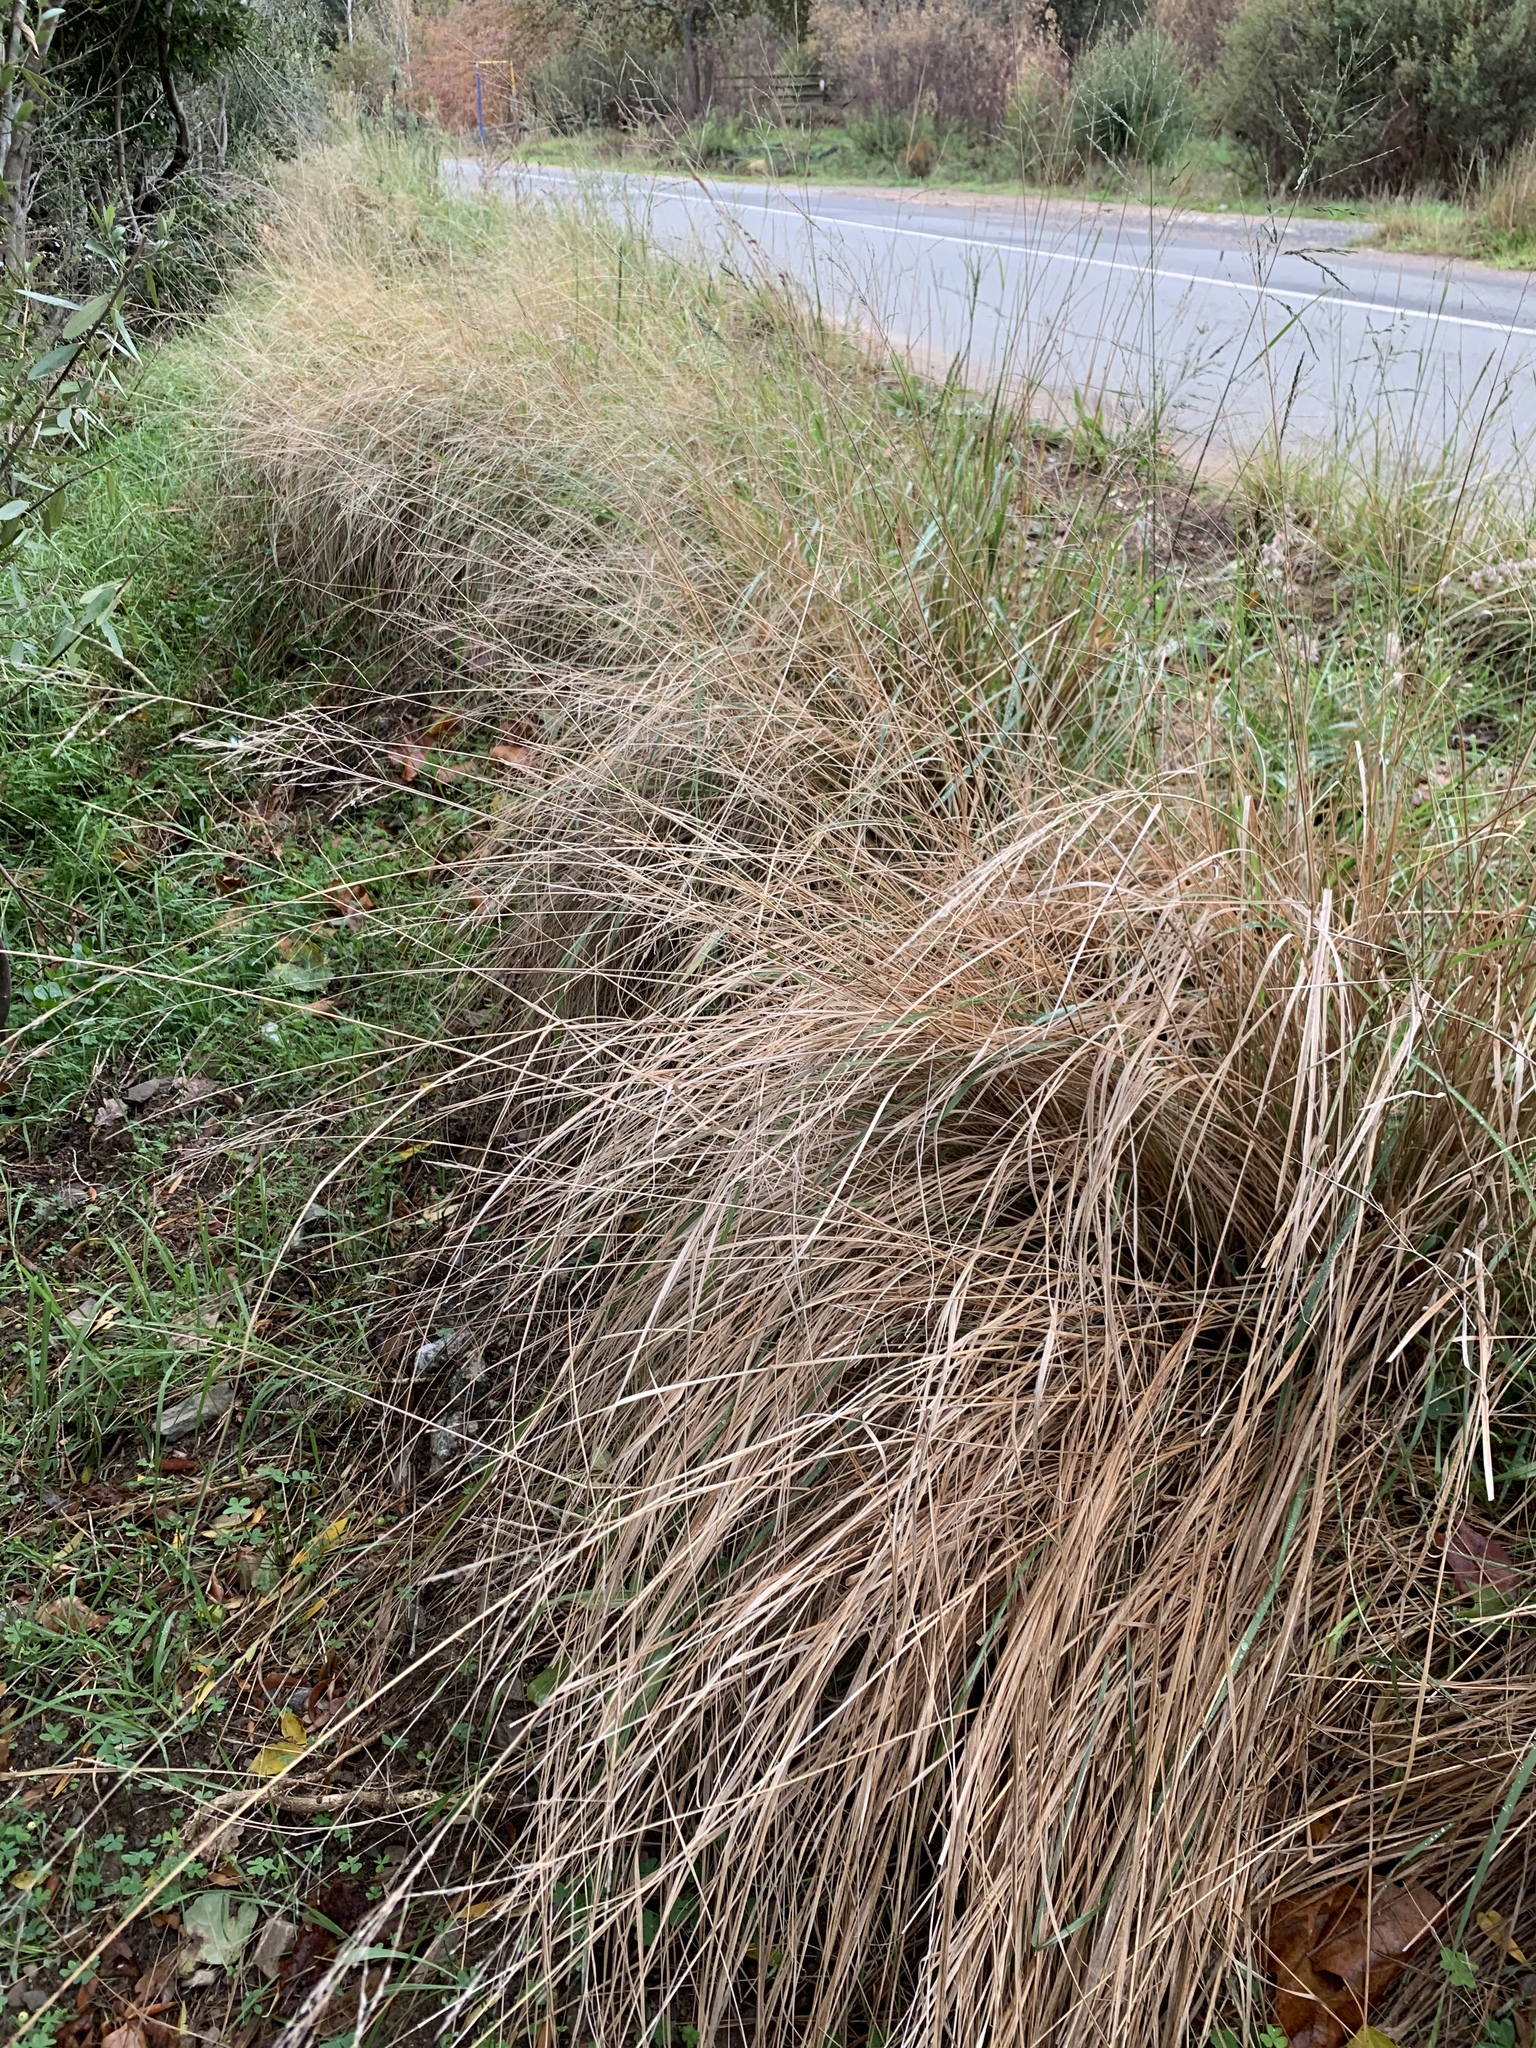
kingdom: Plantae
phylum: Tracheophyta
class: Liliopsida
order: Poales
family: Poaceae
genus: Eragrostis
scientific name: Eragrostis curvula
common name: African love-grass
